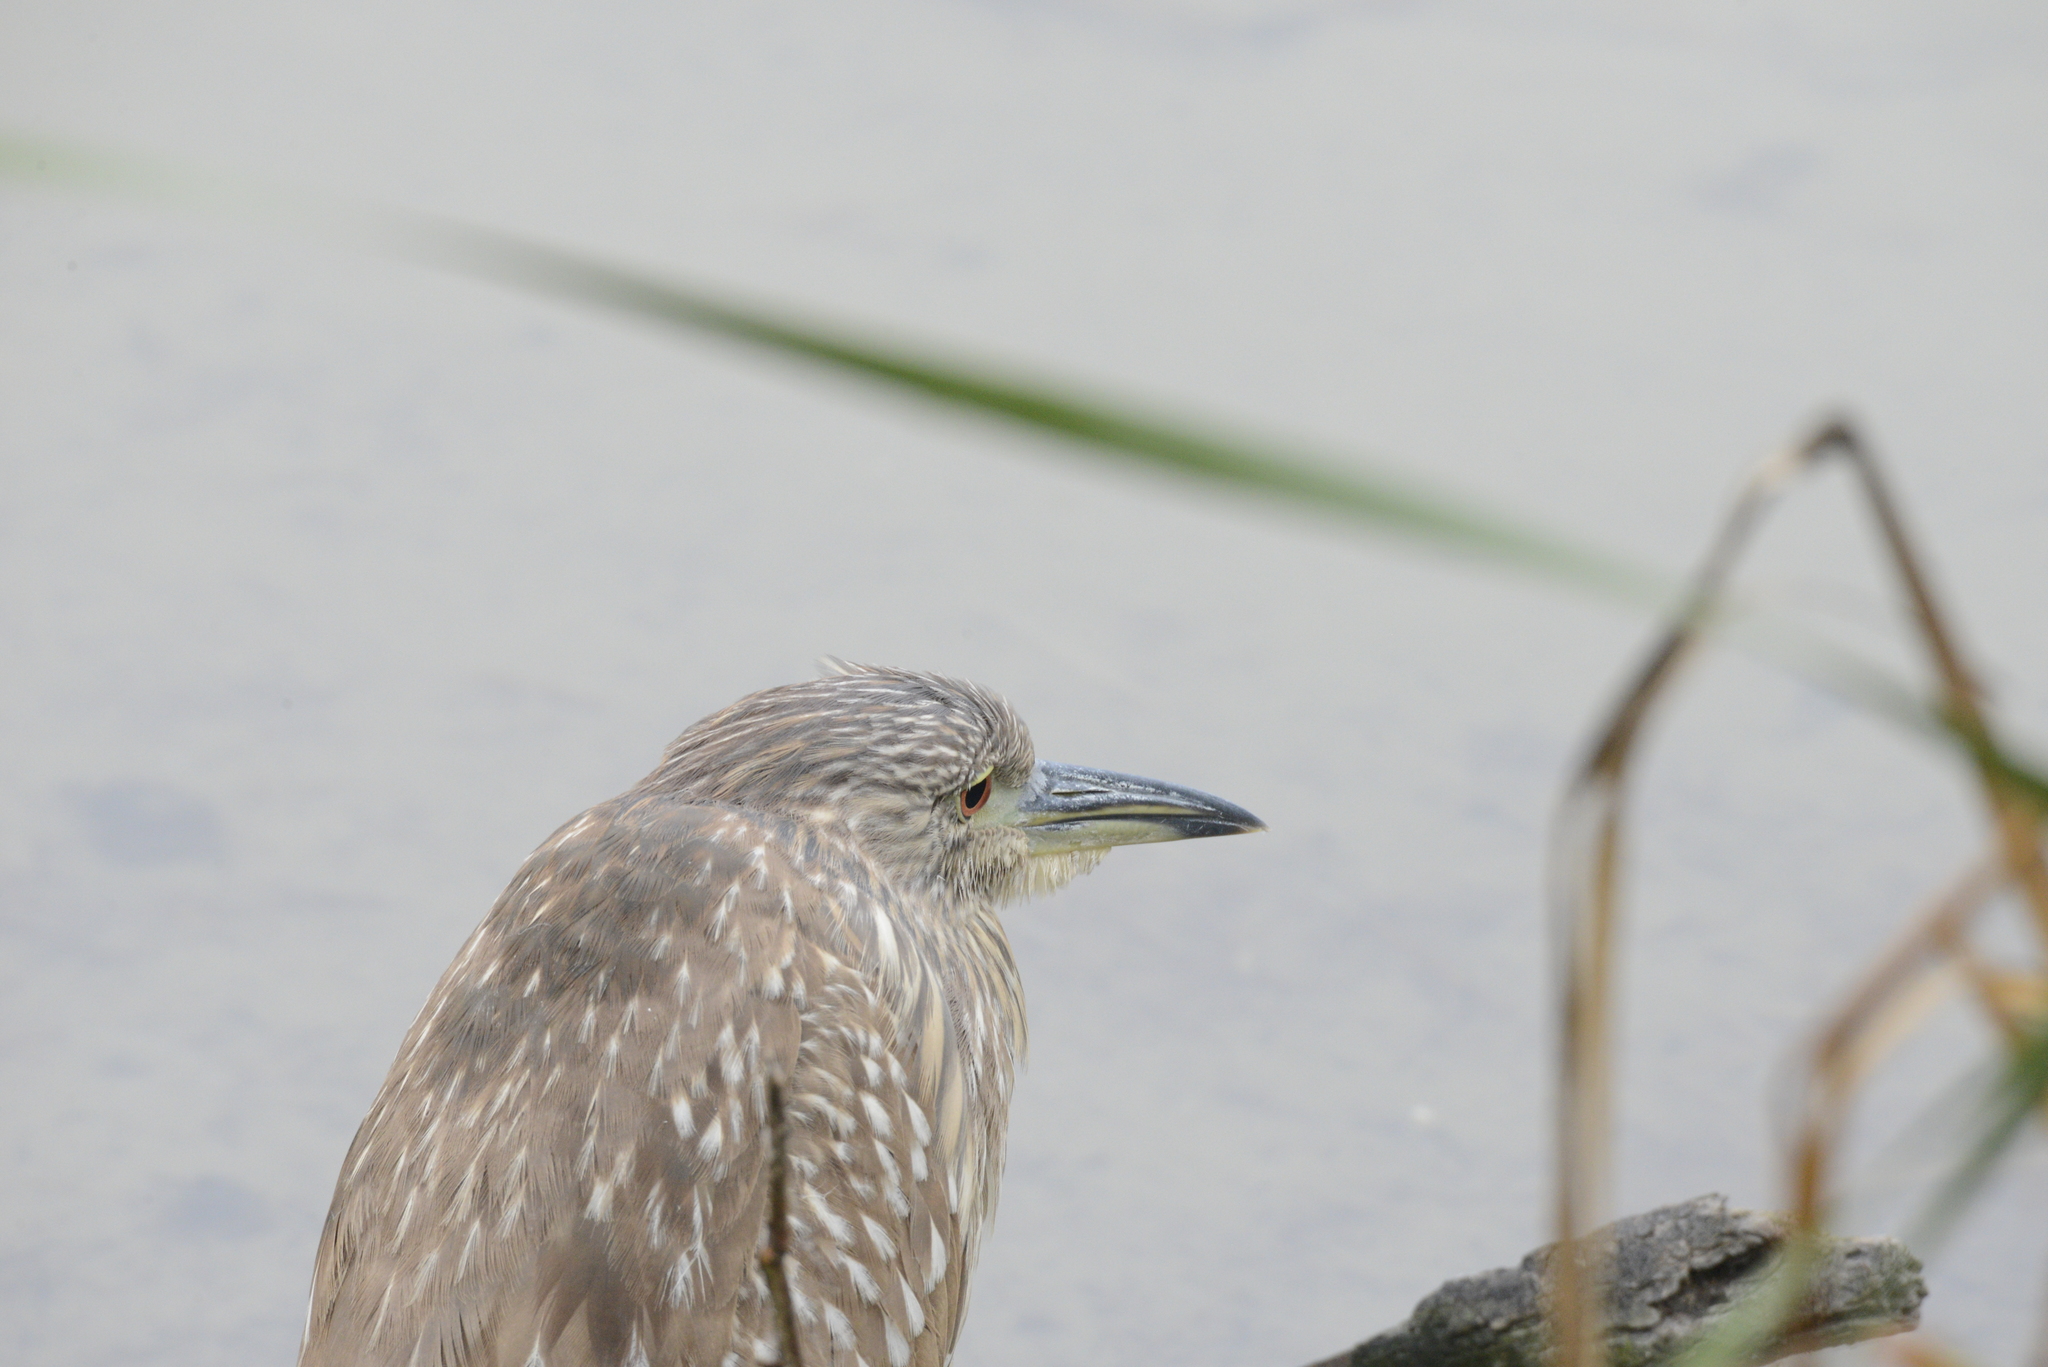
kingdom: Animalia
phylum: Chordata
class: Aves
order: Pelecaniformes
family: Ardeidae
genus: Nycticorax
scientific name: Nycticorax nycticorax
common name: Black-crowned night heron
